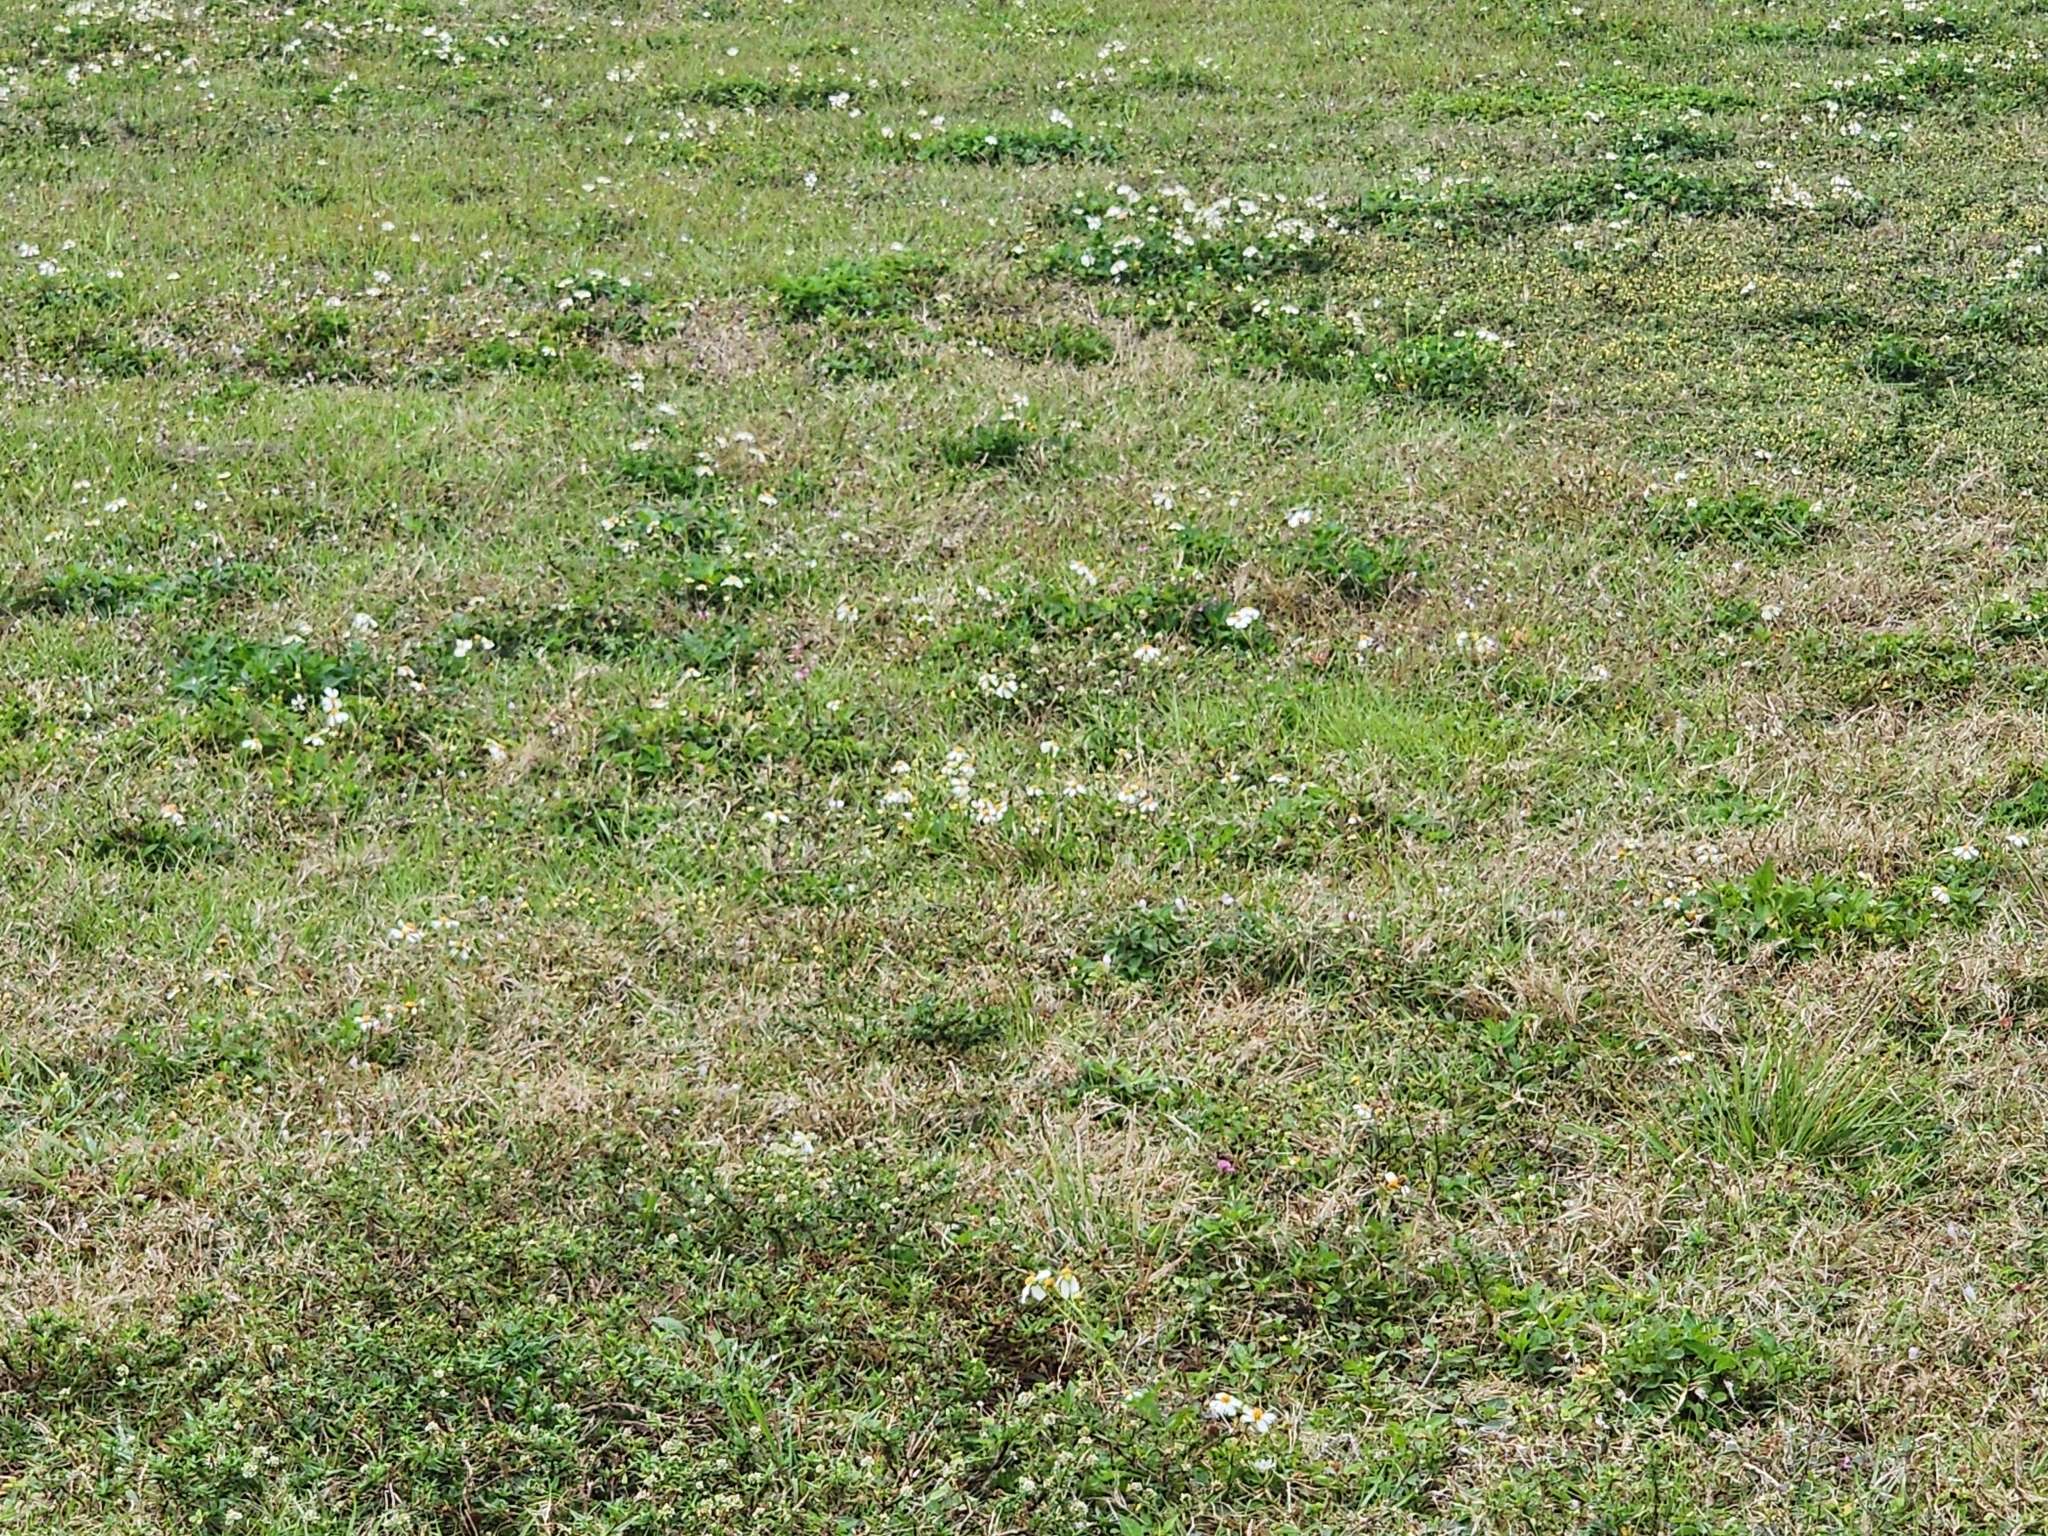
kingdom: Plantae
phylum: Tracheophyta
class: Magnoliopsida
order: Asterales
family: Asteraceae
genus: Bidens
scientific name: Bidens alba
